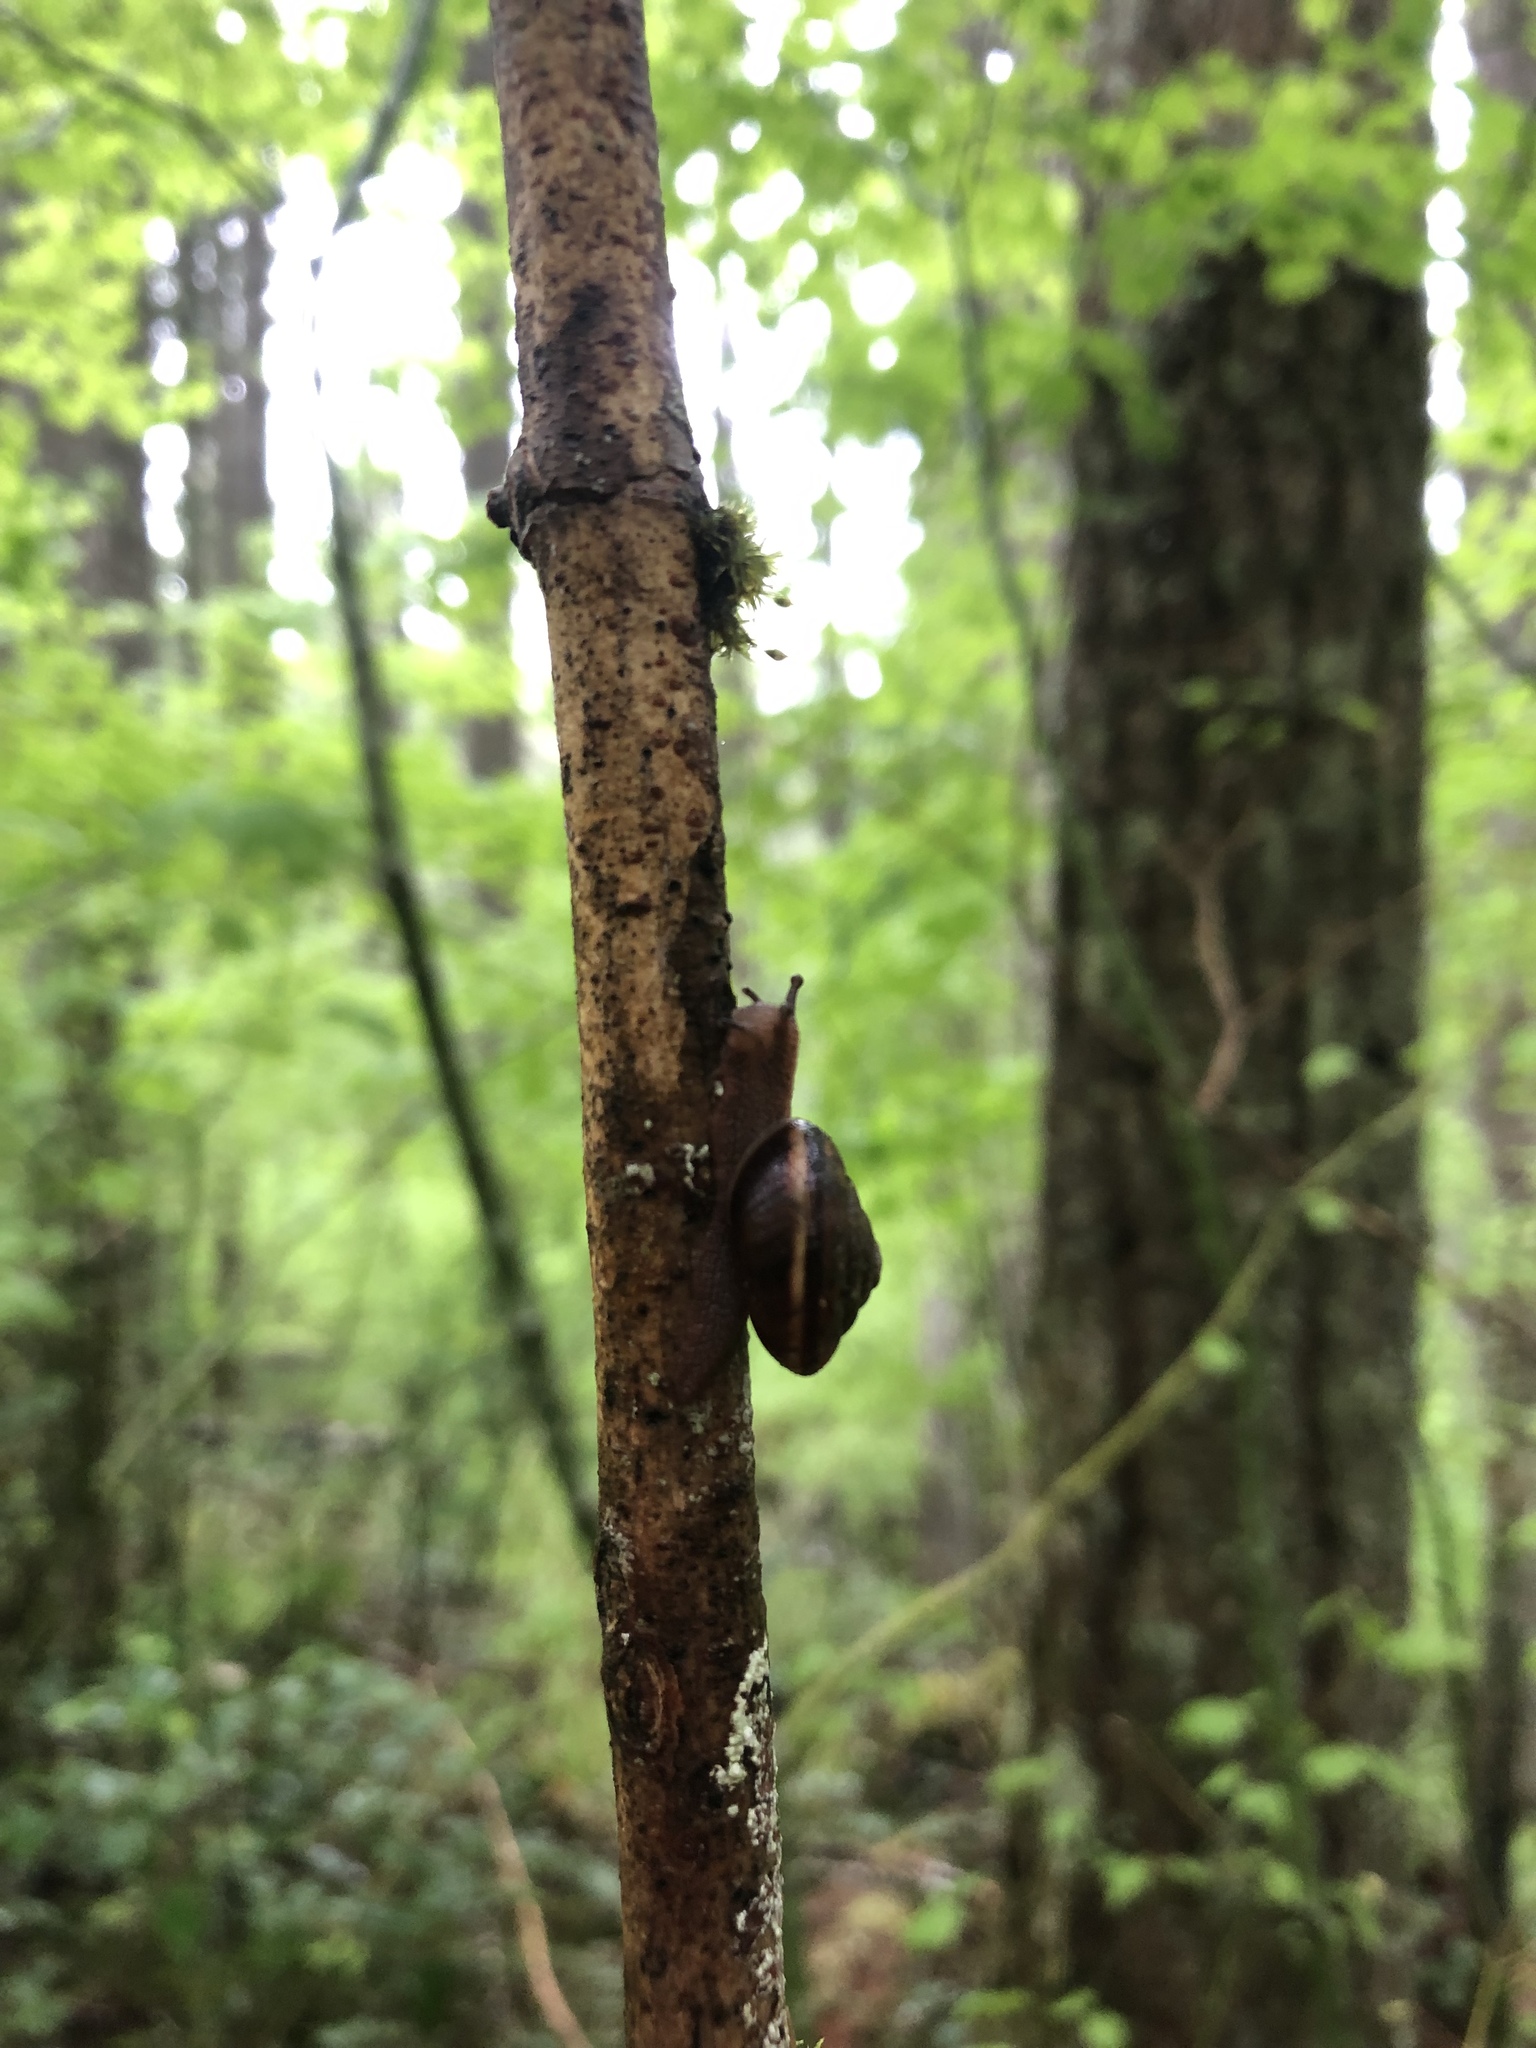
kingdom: Animalia
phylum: Mollusca
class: Gastropoda
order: Stylommatophora
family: Xanthonychidae
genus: Monadenia
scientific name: Monadenia fidelis
